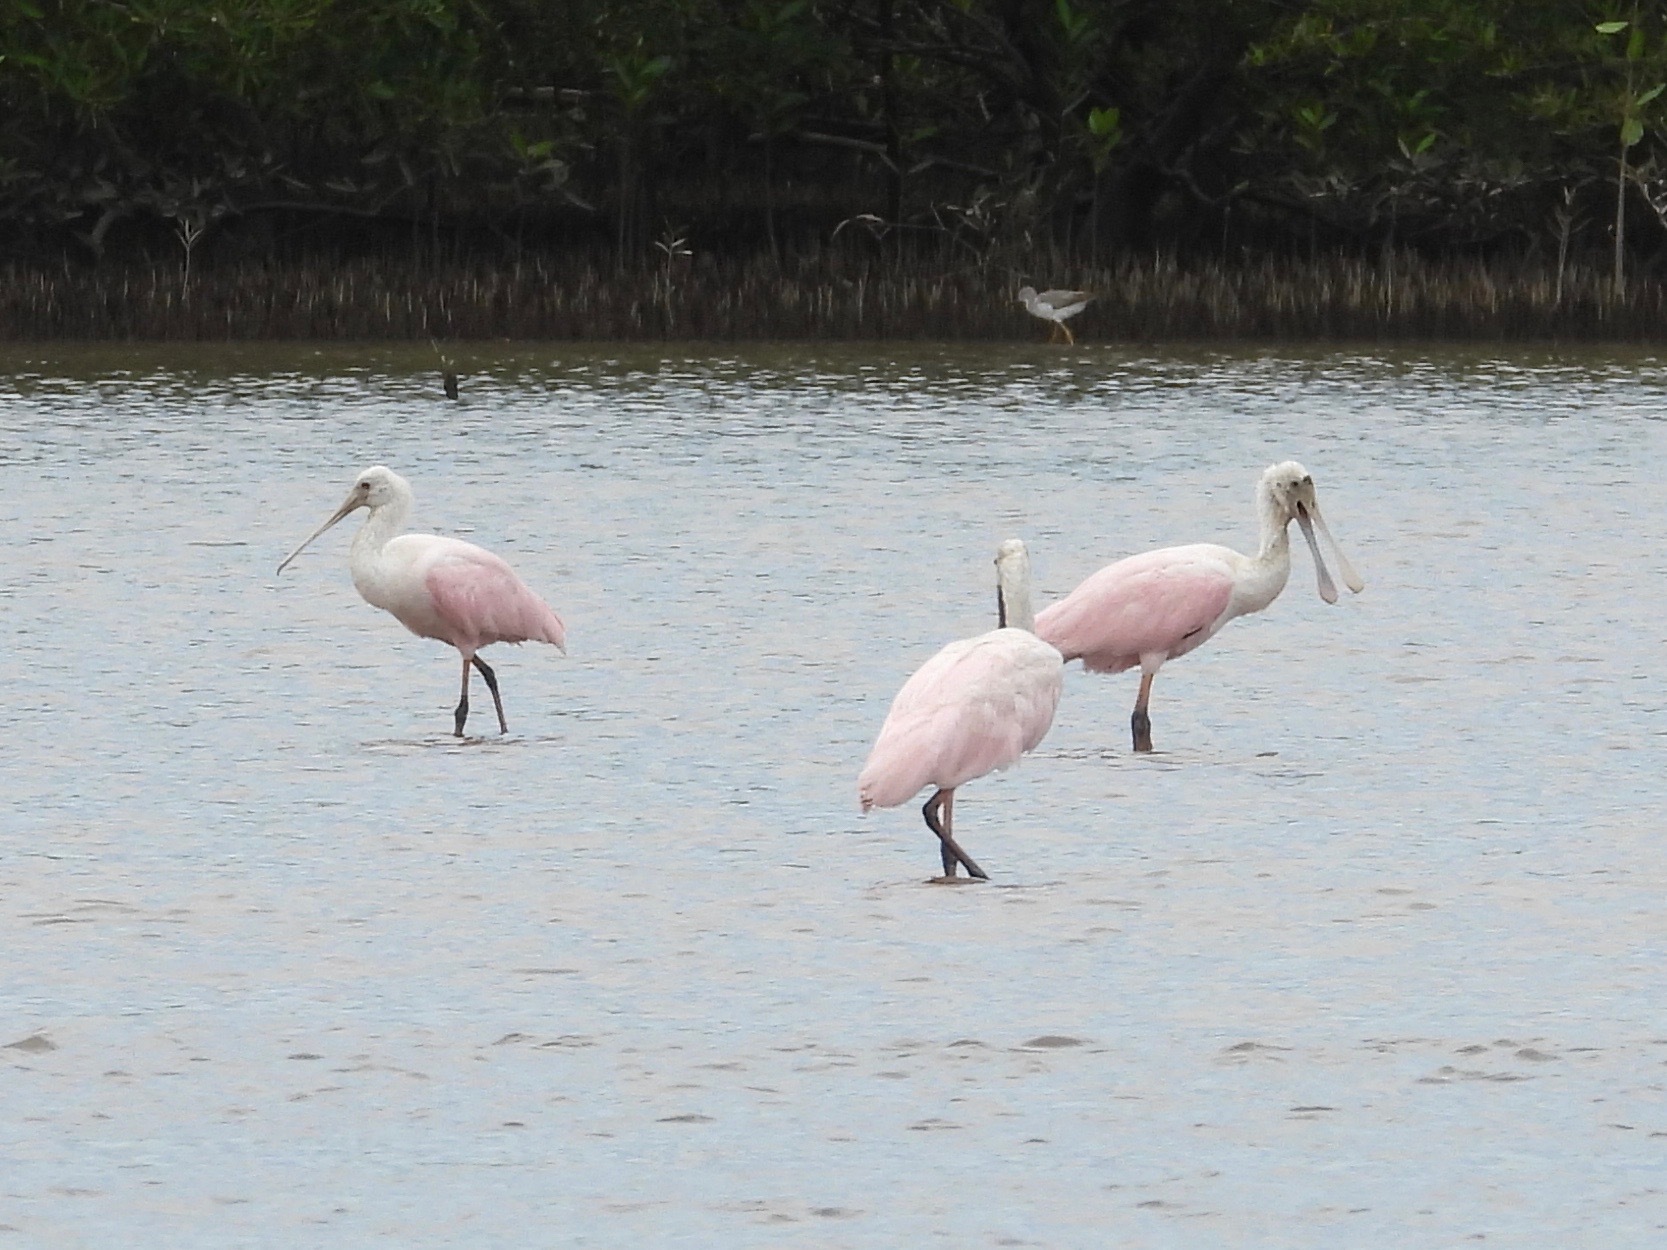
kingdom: Animalia
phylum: Chordata
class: Aves
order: Pelecaniformes
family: Threskiornithidae
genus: Platalea
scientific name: Platalea ajaja
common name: Roseate spoonbill
